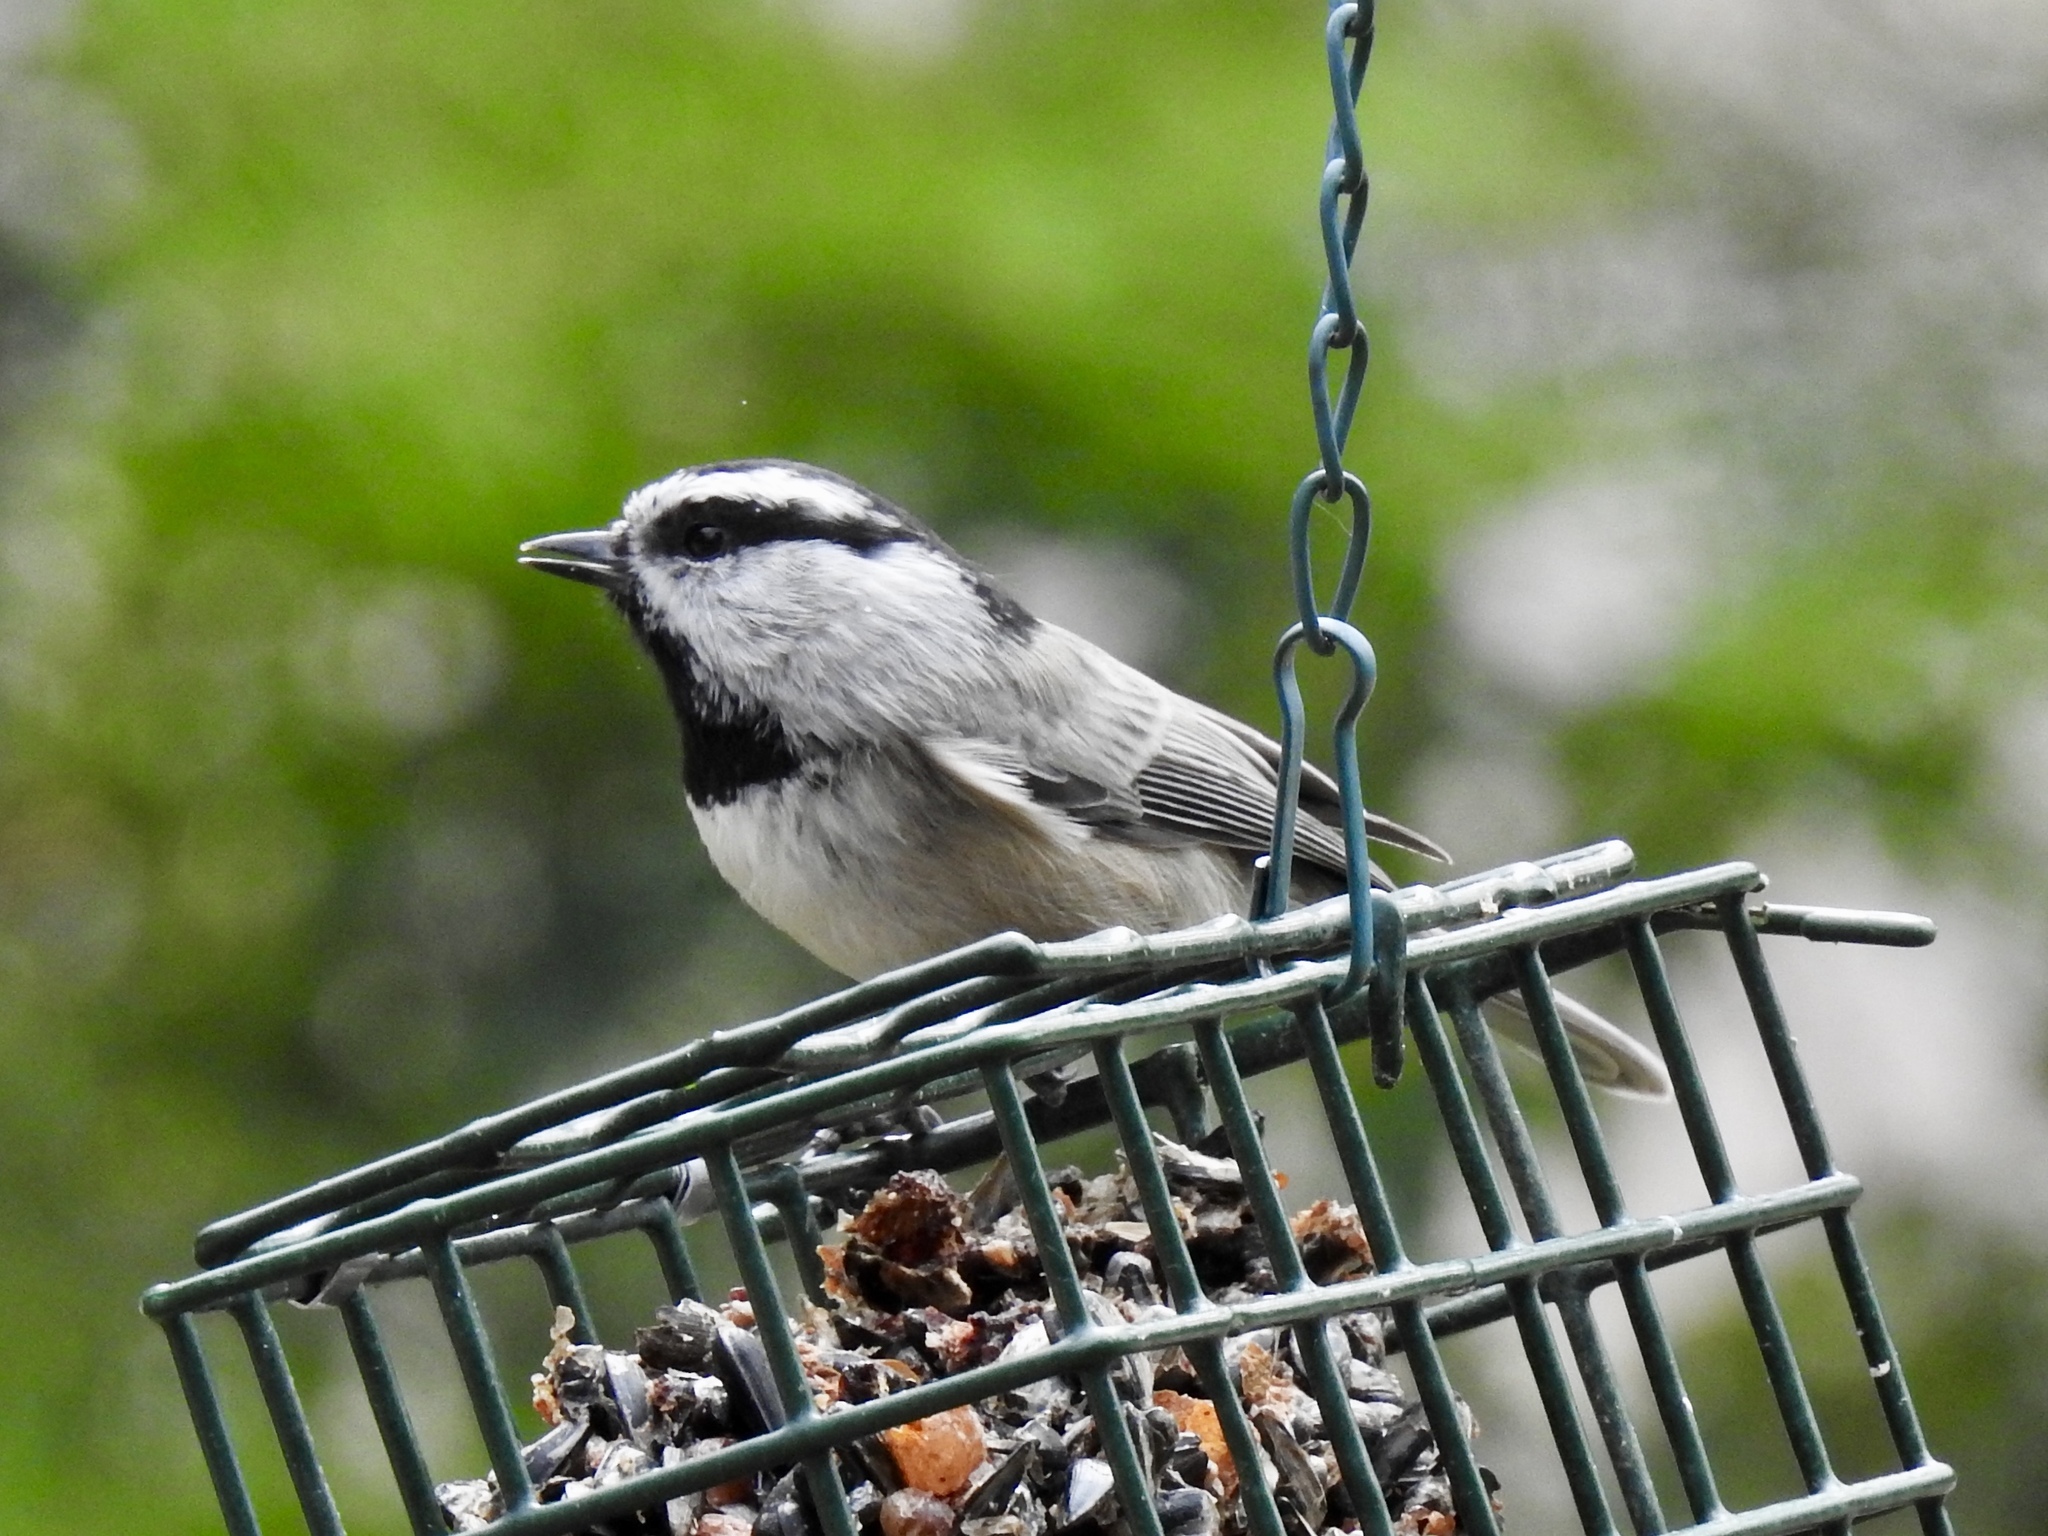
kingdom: Animalia
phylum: Chordata
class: Aves
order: Passeriformes
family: Paridae
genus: Poecile
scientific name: Poecile gambeli
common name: Mountain chickadee
